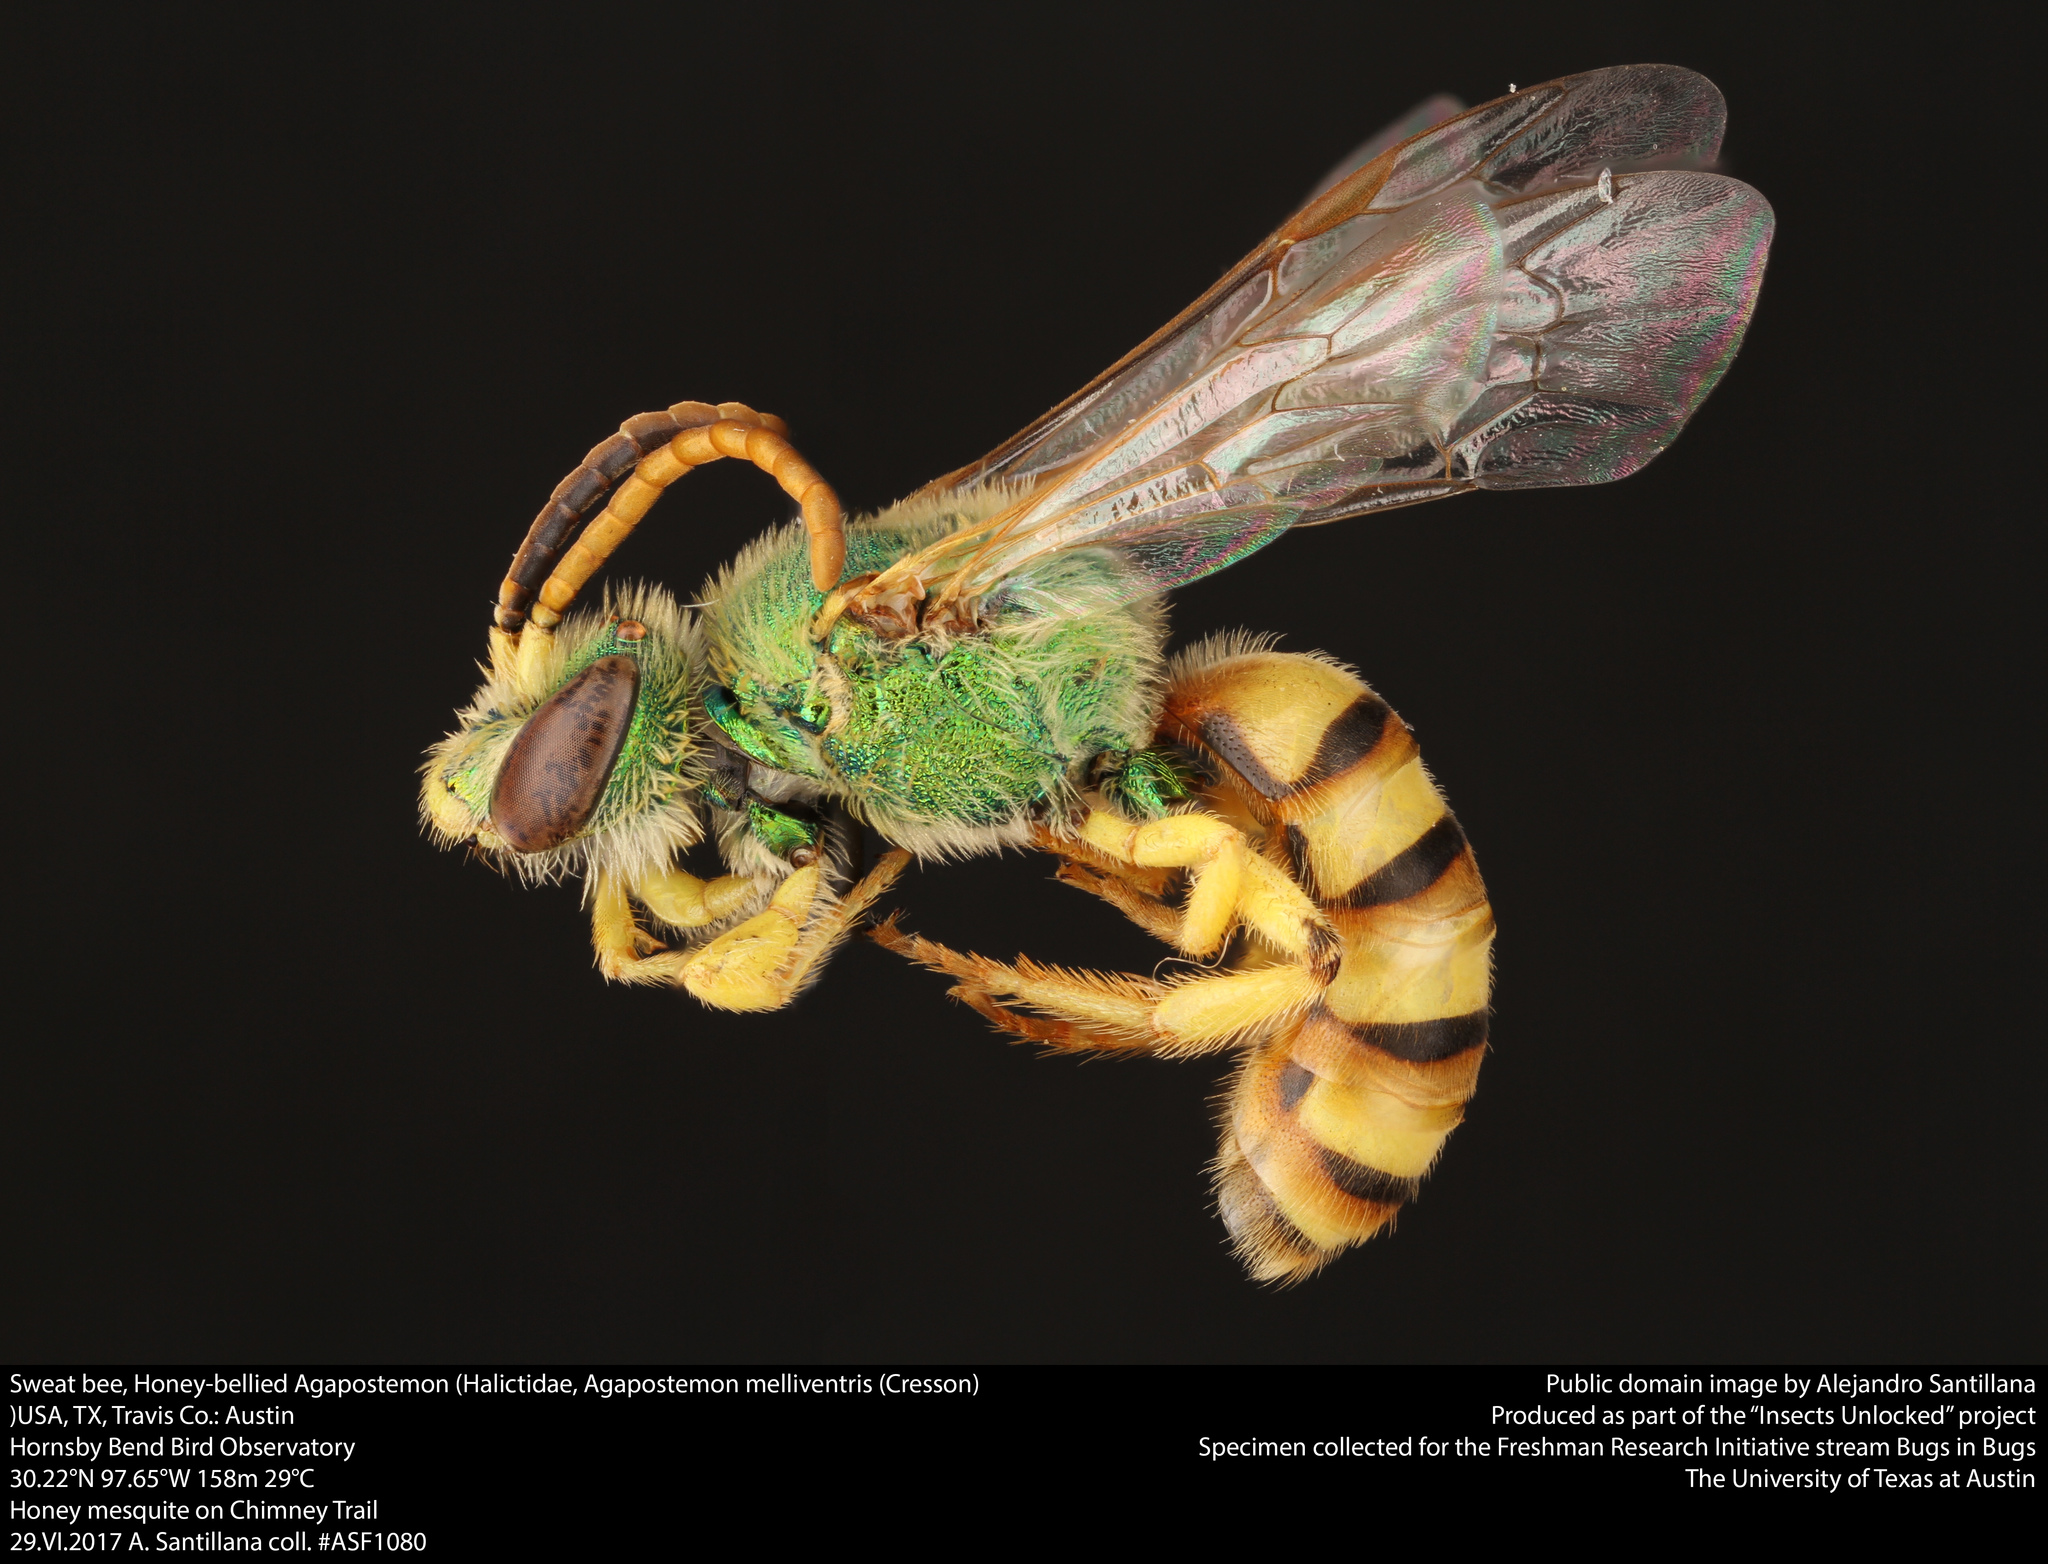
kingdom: Animalia
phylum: Arthropoda
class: Insecta
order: Hymenoptera
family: Halictidae
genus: Agapostemon
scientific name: Agapostemon melliventris
